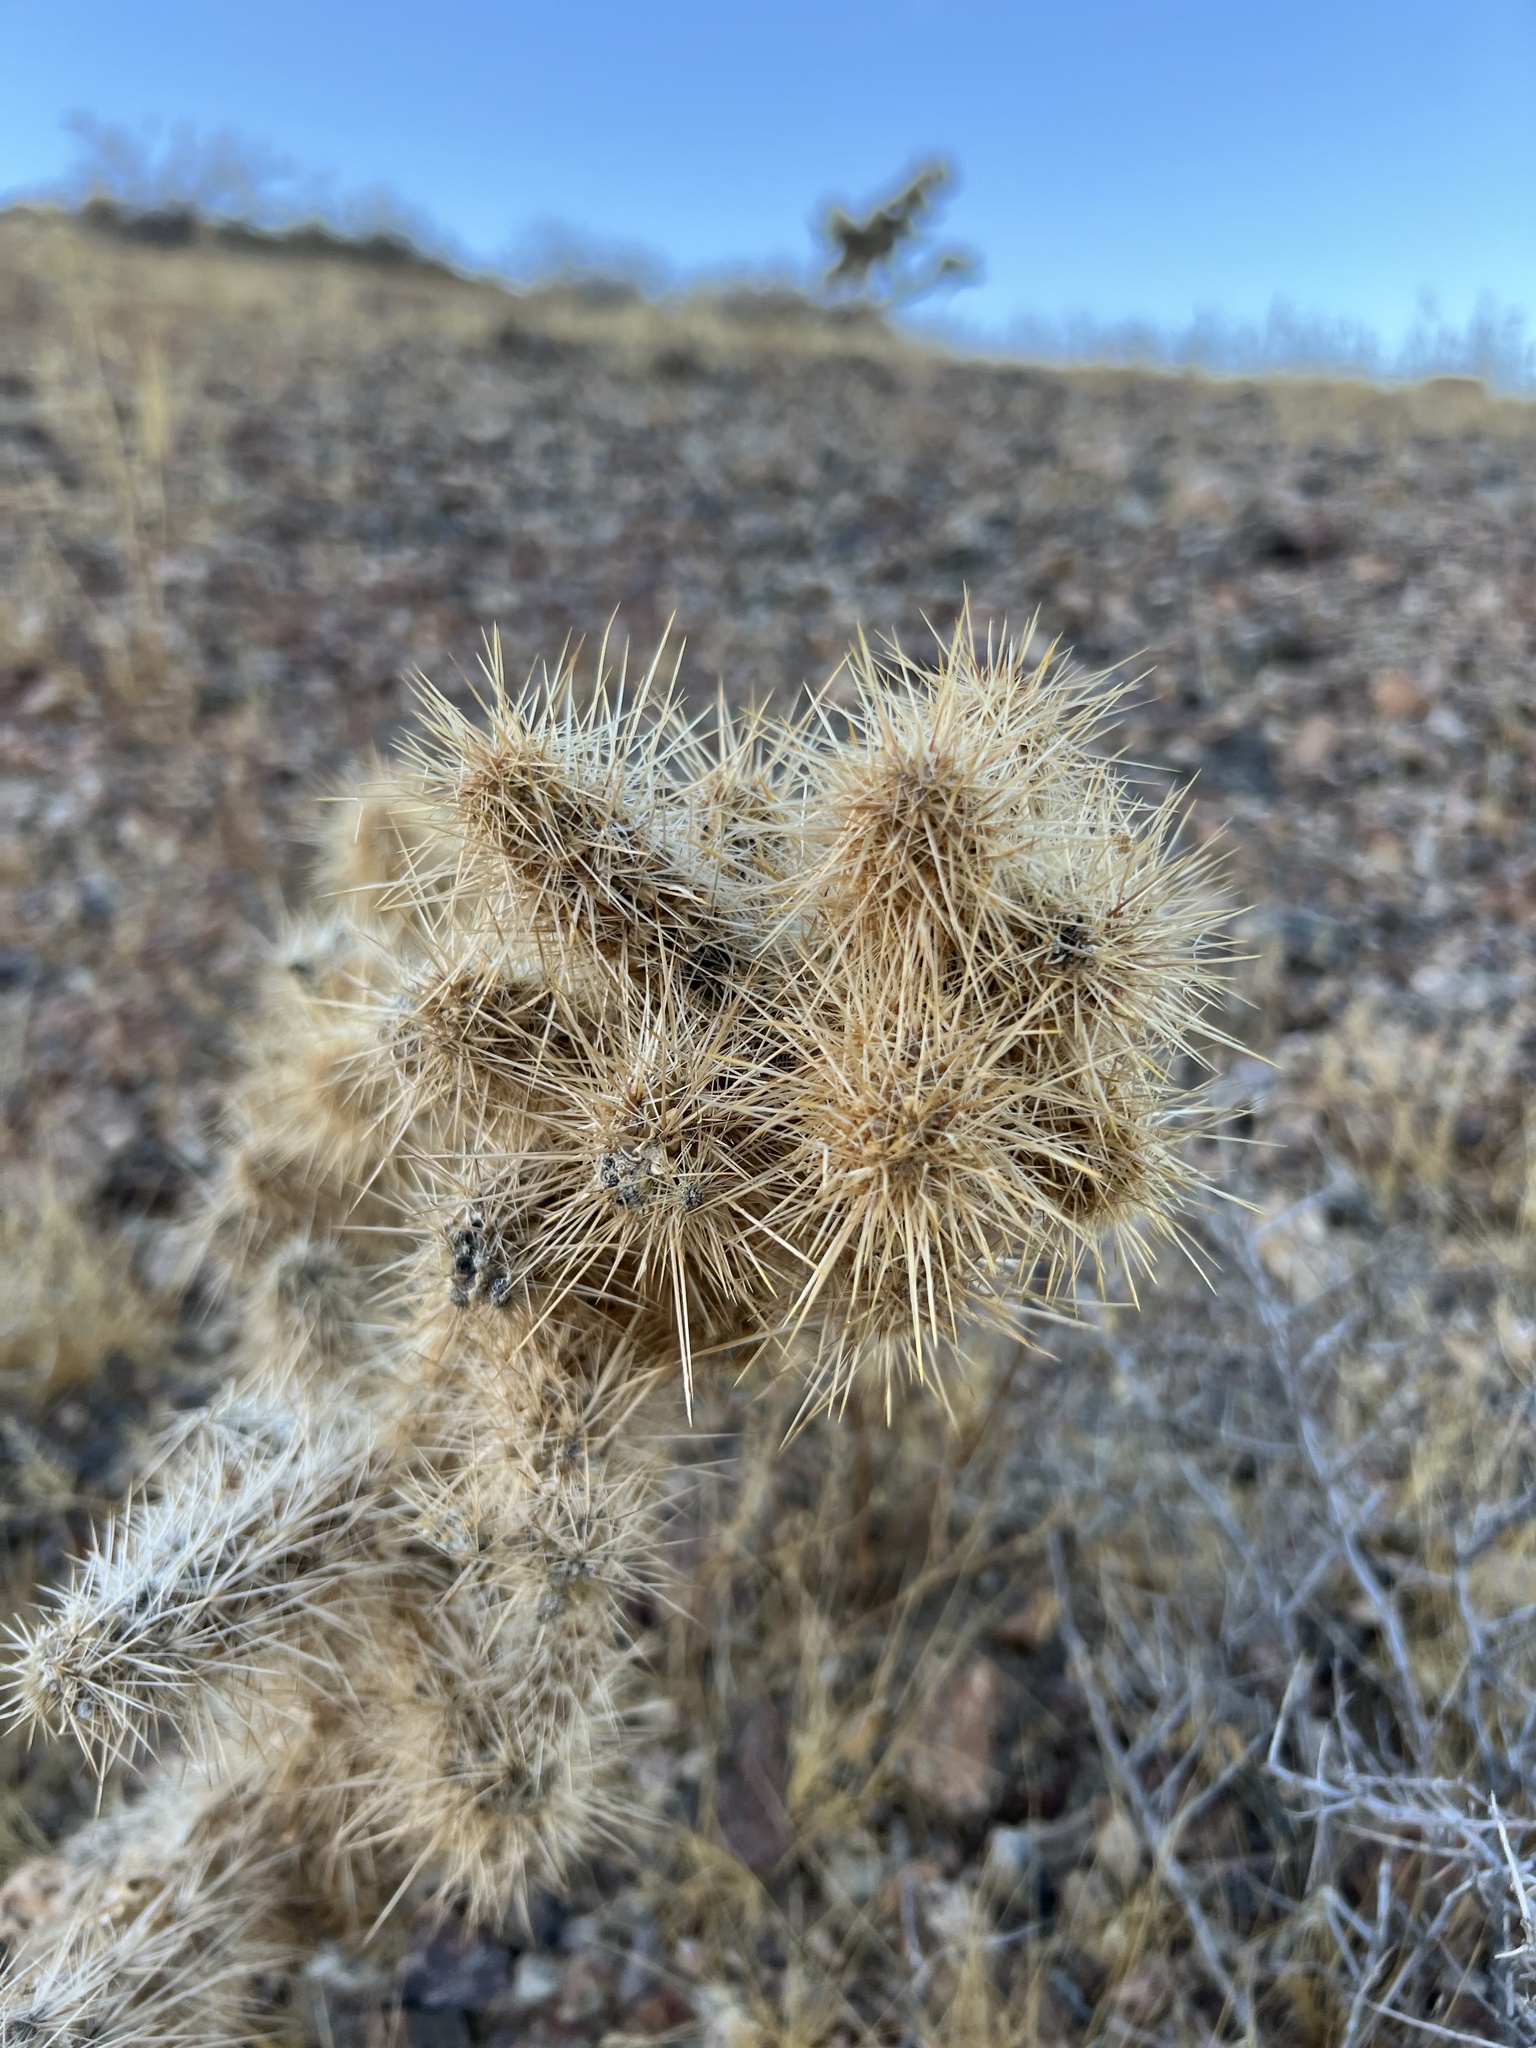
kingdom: Plantae
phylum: Tracheophyta
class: Magnoliopsida
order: Caryophyllales
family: Cactaceae
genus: Cylindropuntia
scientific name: Cylindropuntia echinocarpa
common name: Ground cholla
